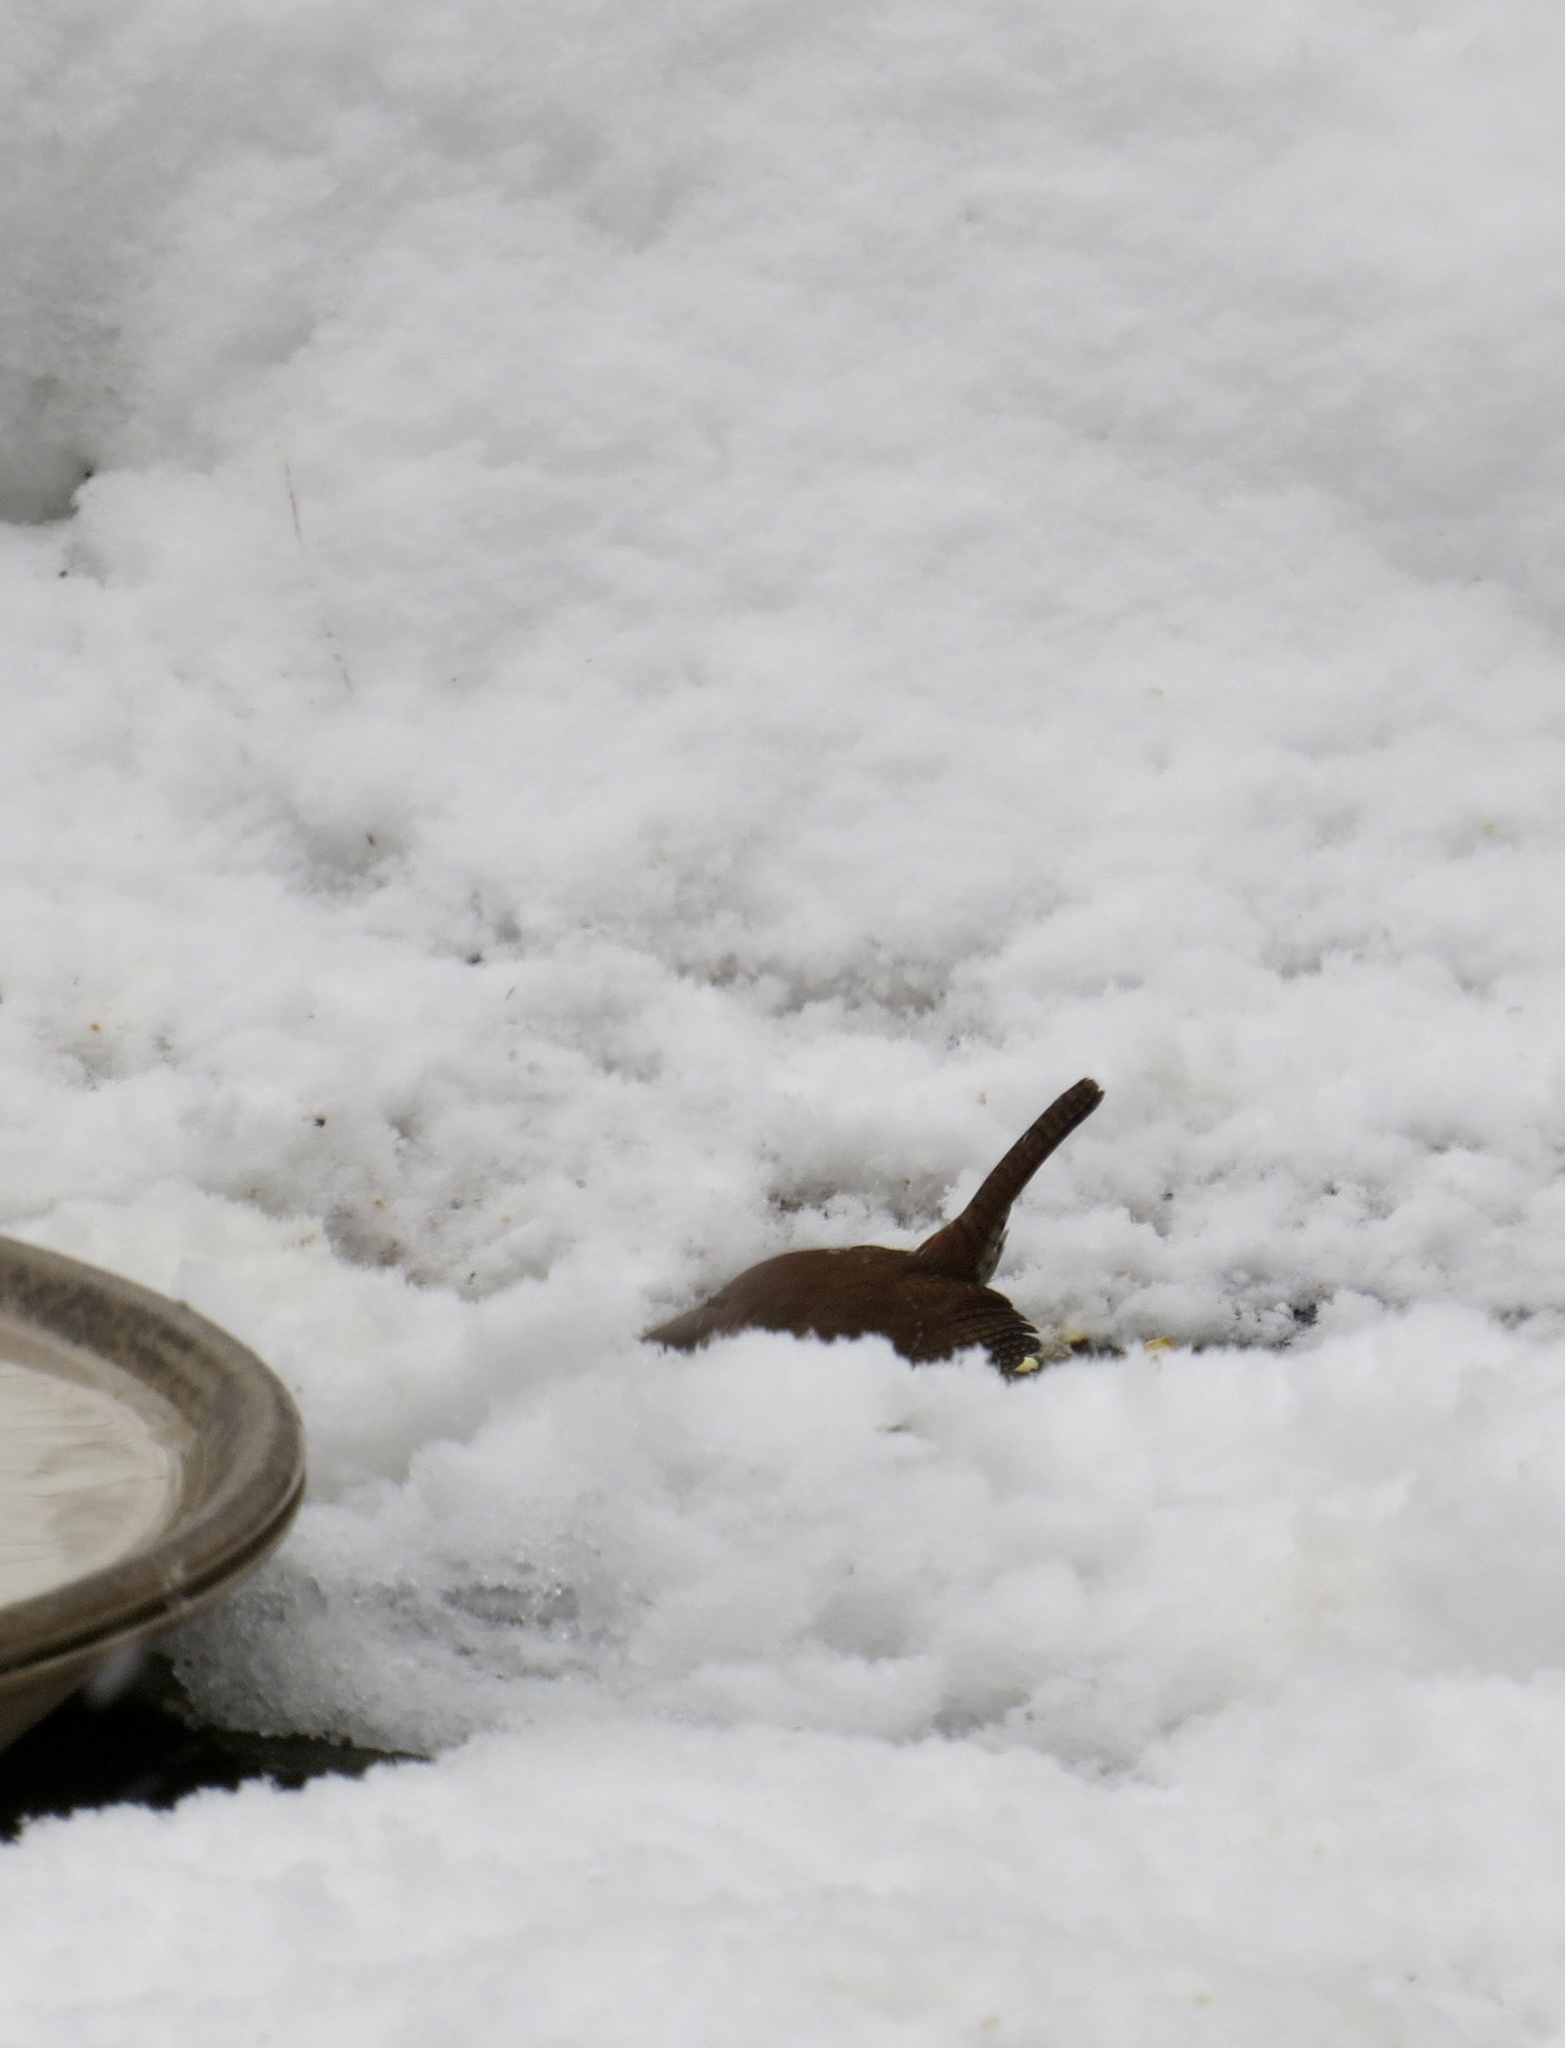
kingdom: Animalia
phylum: Chordata
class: Aves
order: Passeriformes
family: Troglodytidae
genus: Thryothorus
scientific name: Thryothorus ludovicianus
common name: Carolina wren
